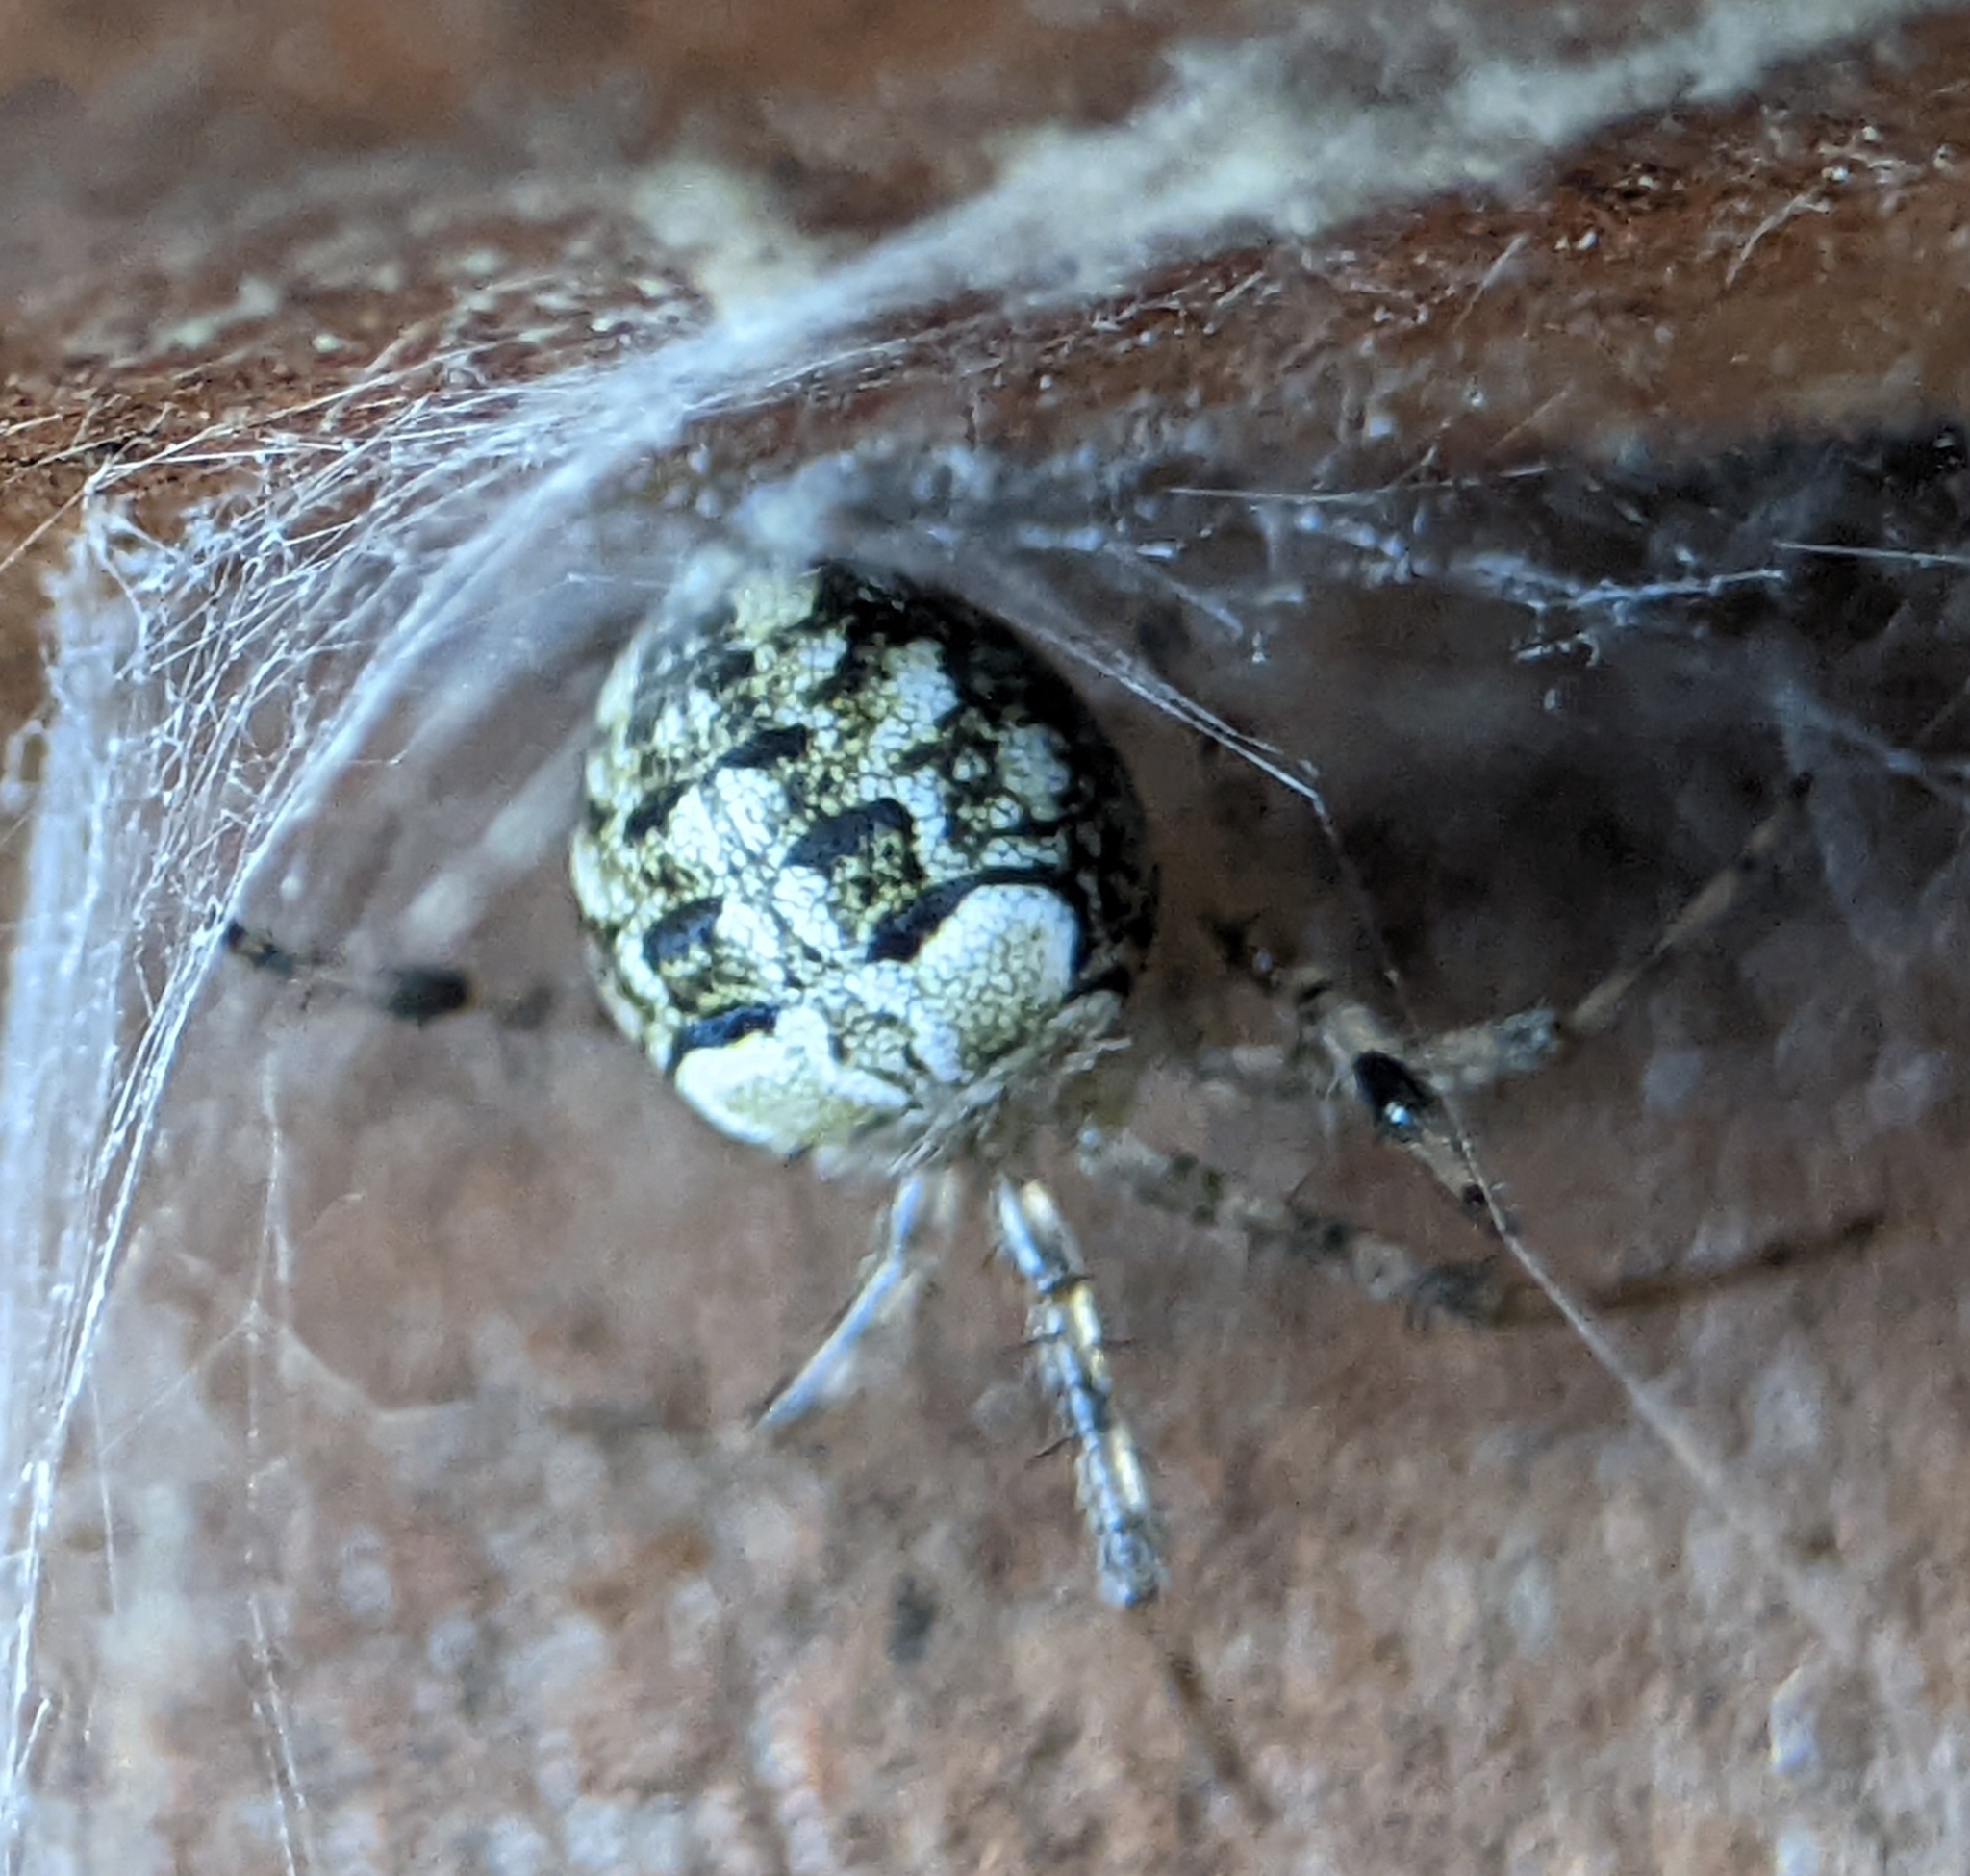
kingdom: Animalia
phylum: Arthropoda
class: Arachnida
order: Araneae
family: Araneidae
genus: Araneus
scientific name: Araneus pegnia
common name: Orb weavers
